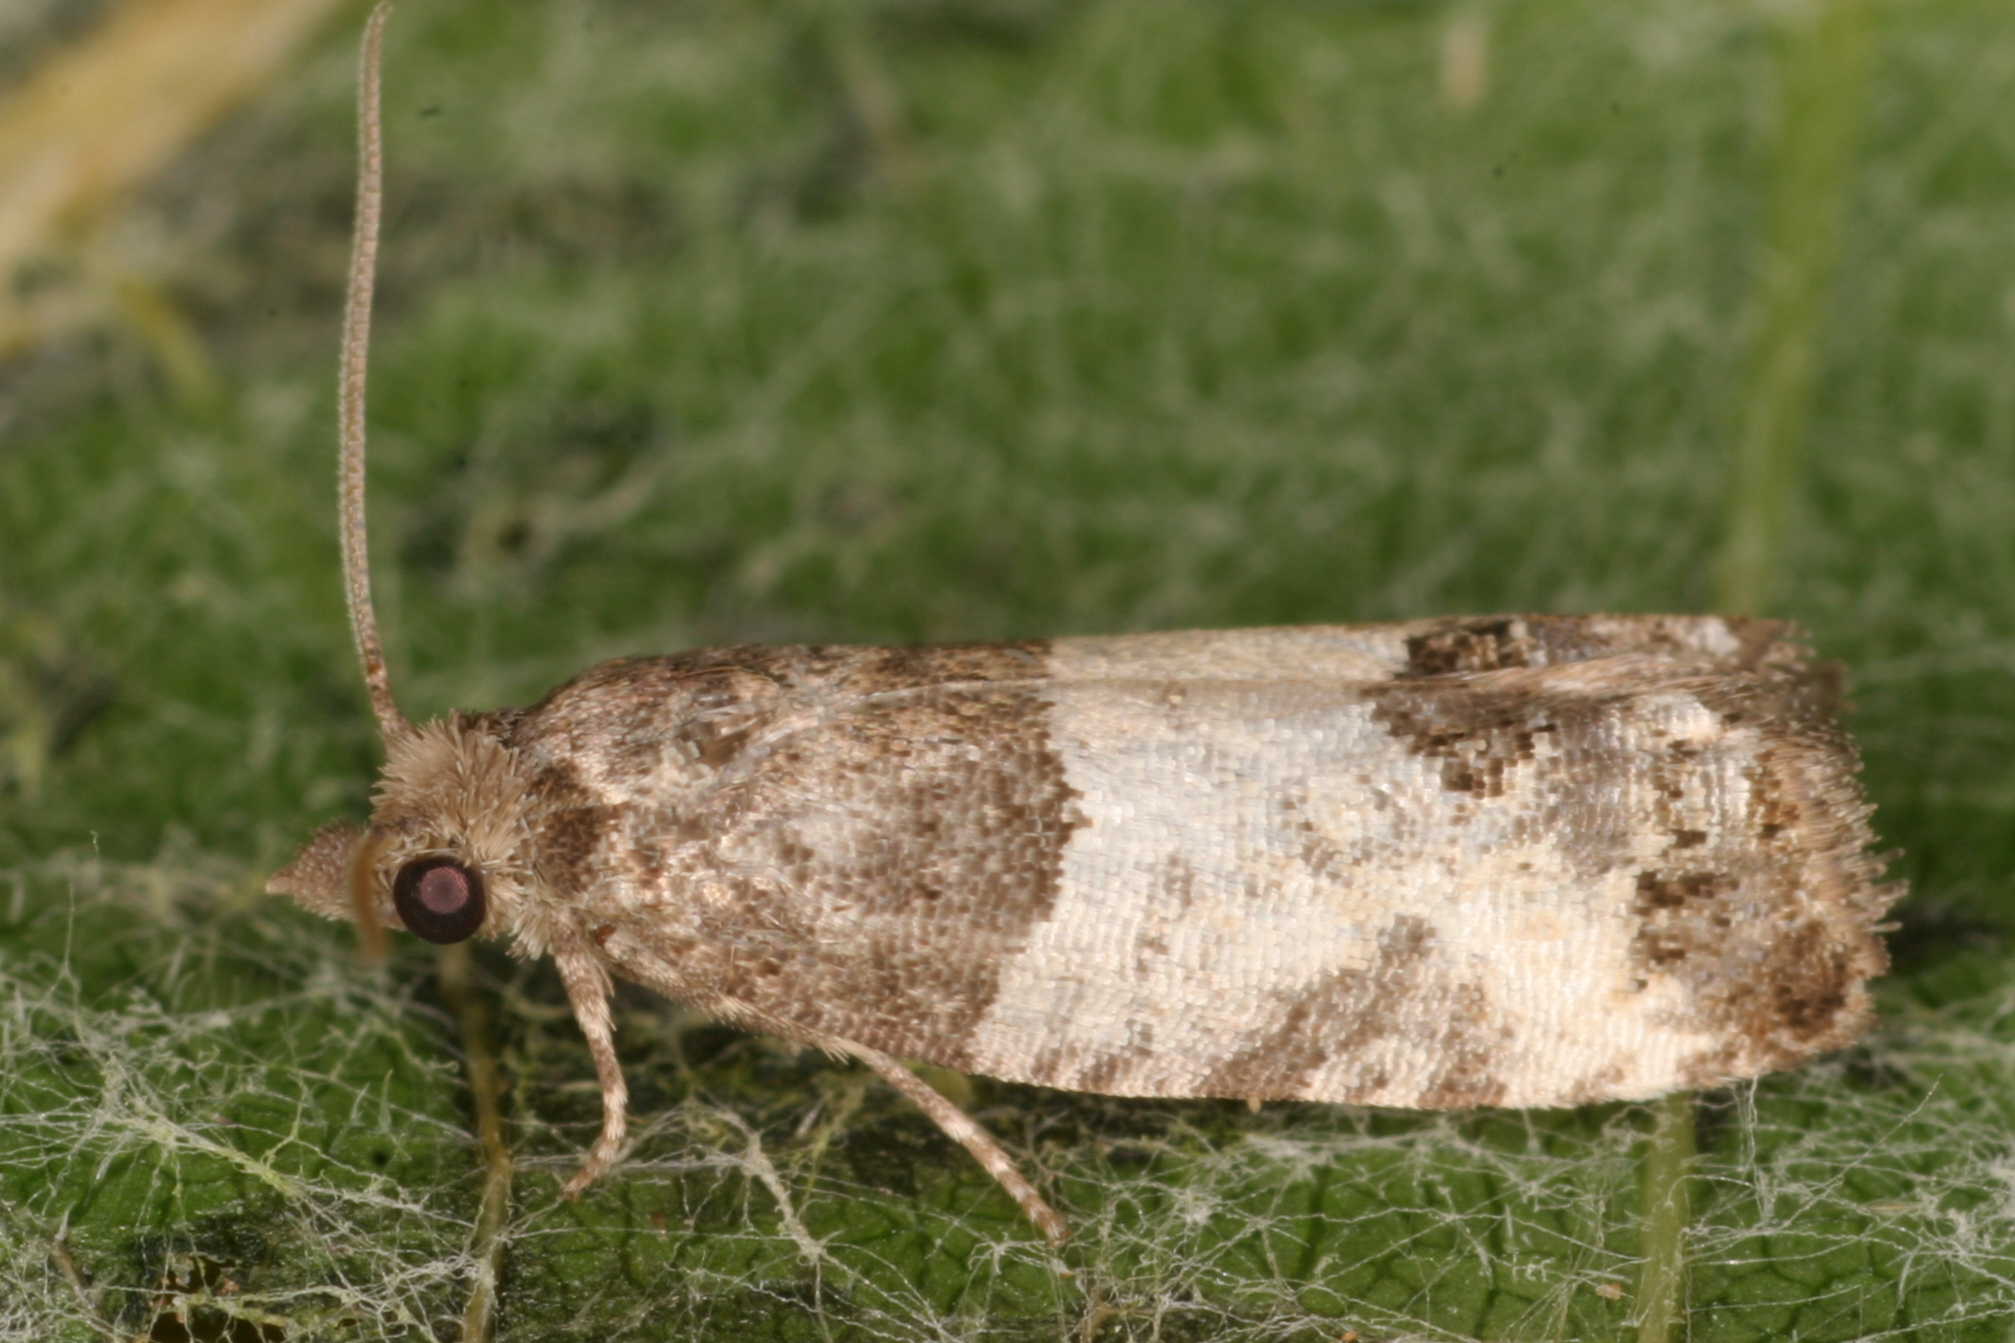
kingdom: Animalia
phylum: Arthropoda
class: Insecta
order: Lepidoptera
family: Tortricidae
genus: Spilonota
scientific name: Spilonota ocellana
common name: Bud moth
